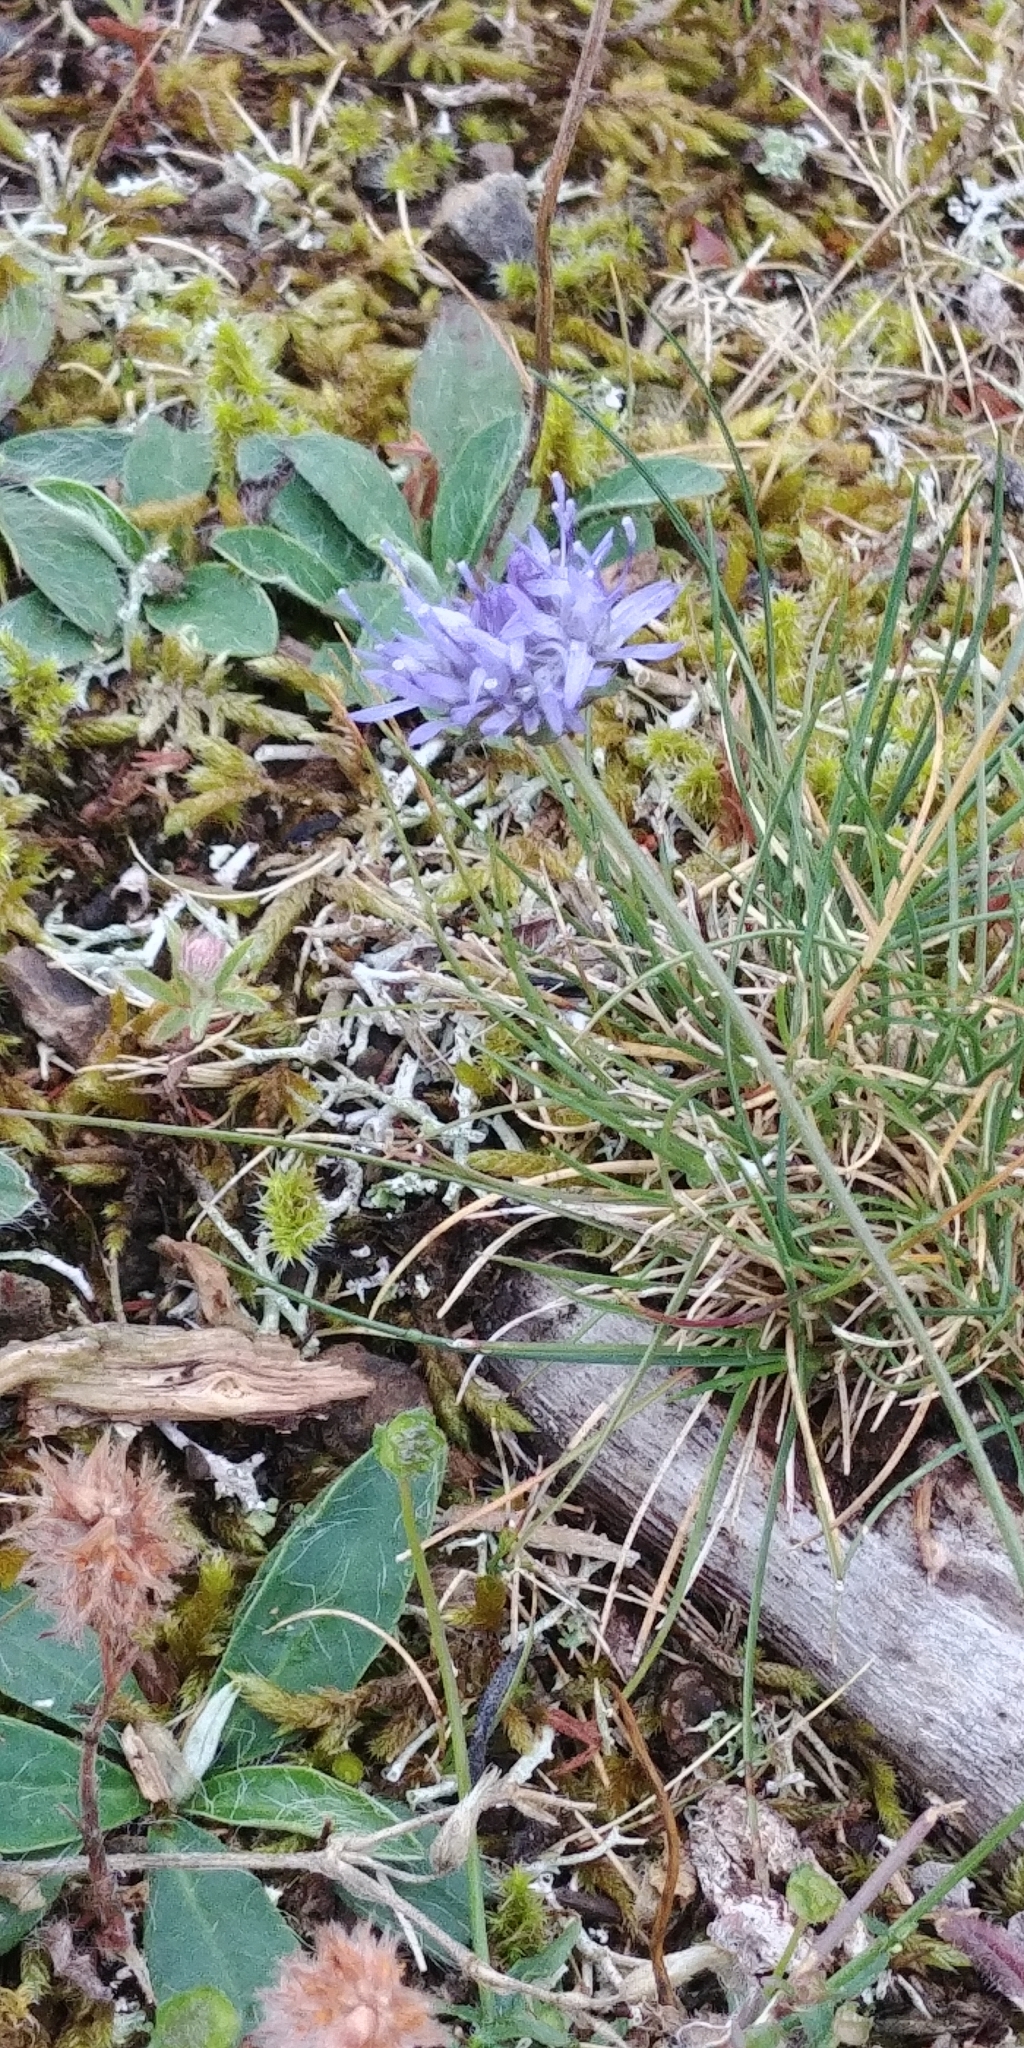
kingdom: Plantae
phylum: Tracheophyta
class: Magnoliopsida
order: Asterales
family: Campanulaceae
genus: Jasione
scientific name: Jasione montana
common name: Sheep's-bit
